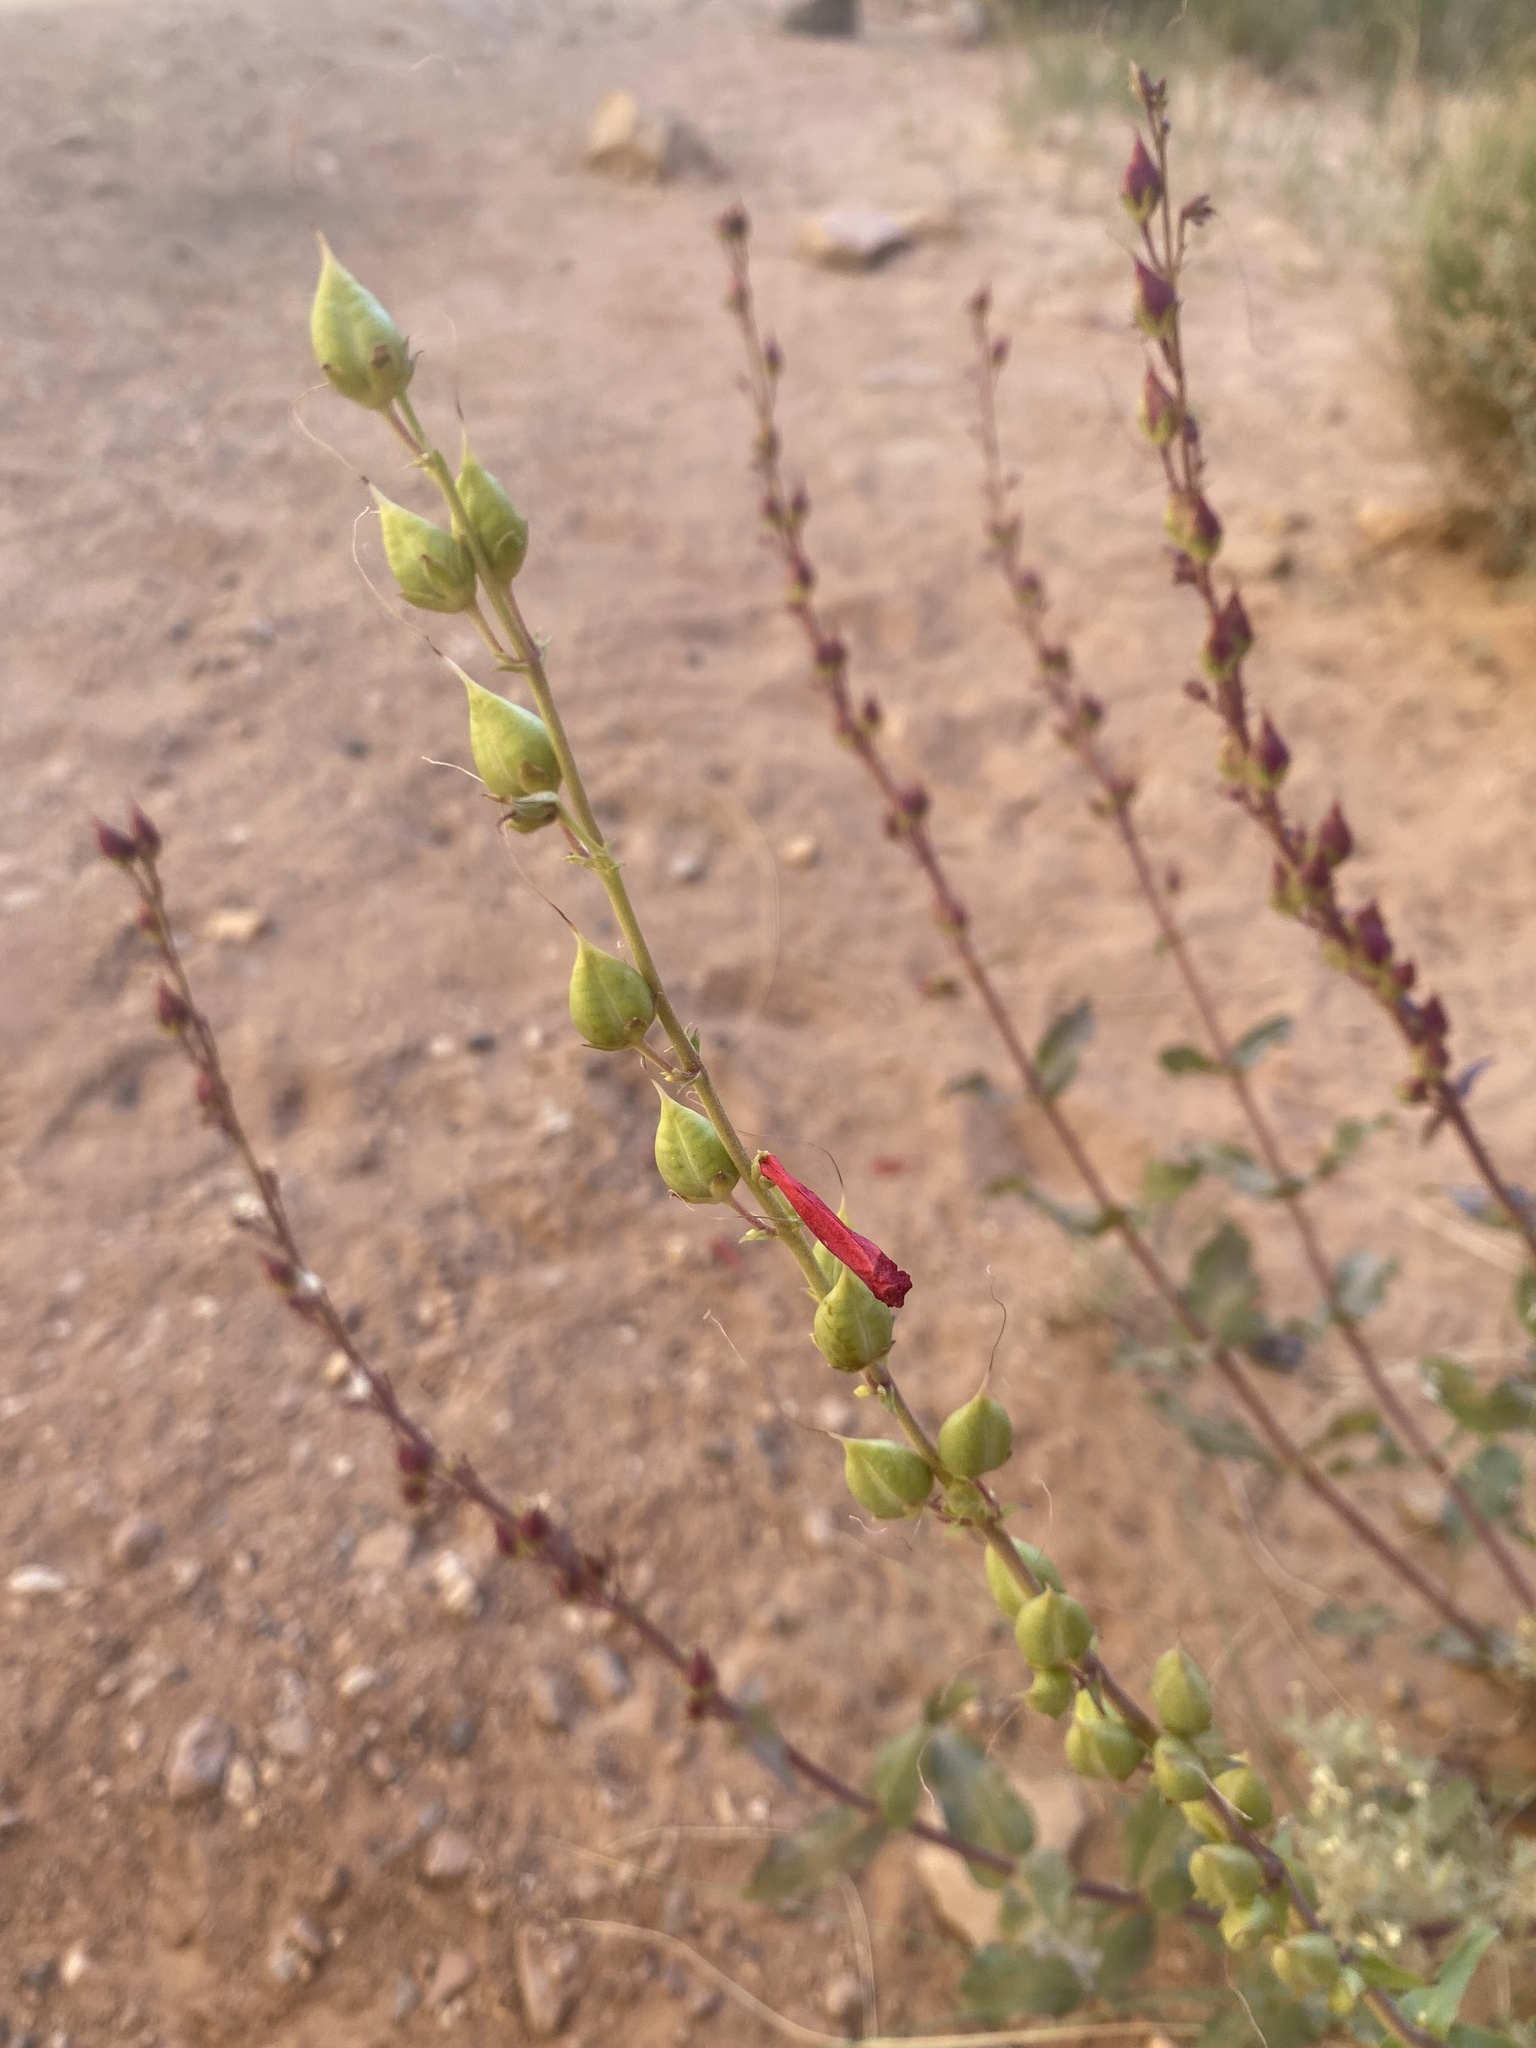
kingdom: Plantae
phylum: Tracheophyta
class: Magnoliopsida
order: Lamiales
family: Plantaginaceae
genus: Penstemon
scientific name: Penstemon eatonii
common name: Eaton's penstemon
